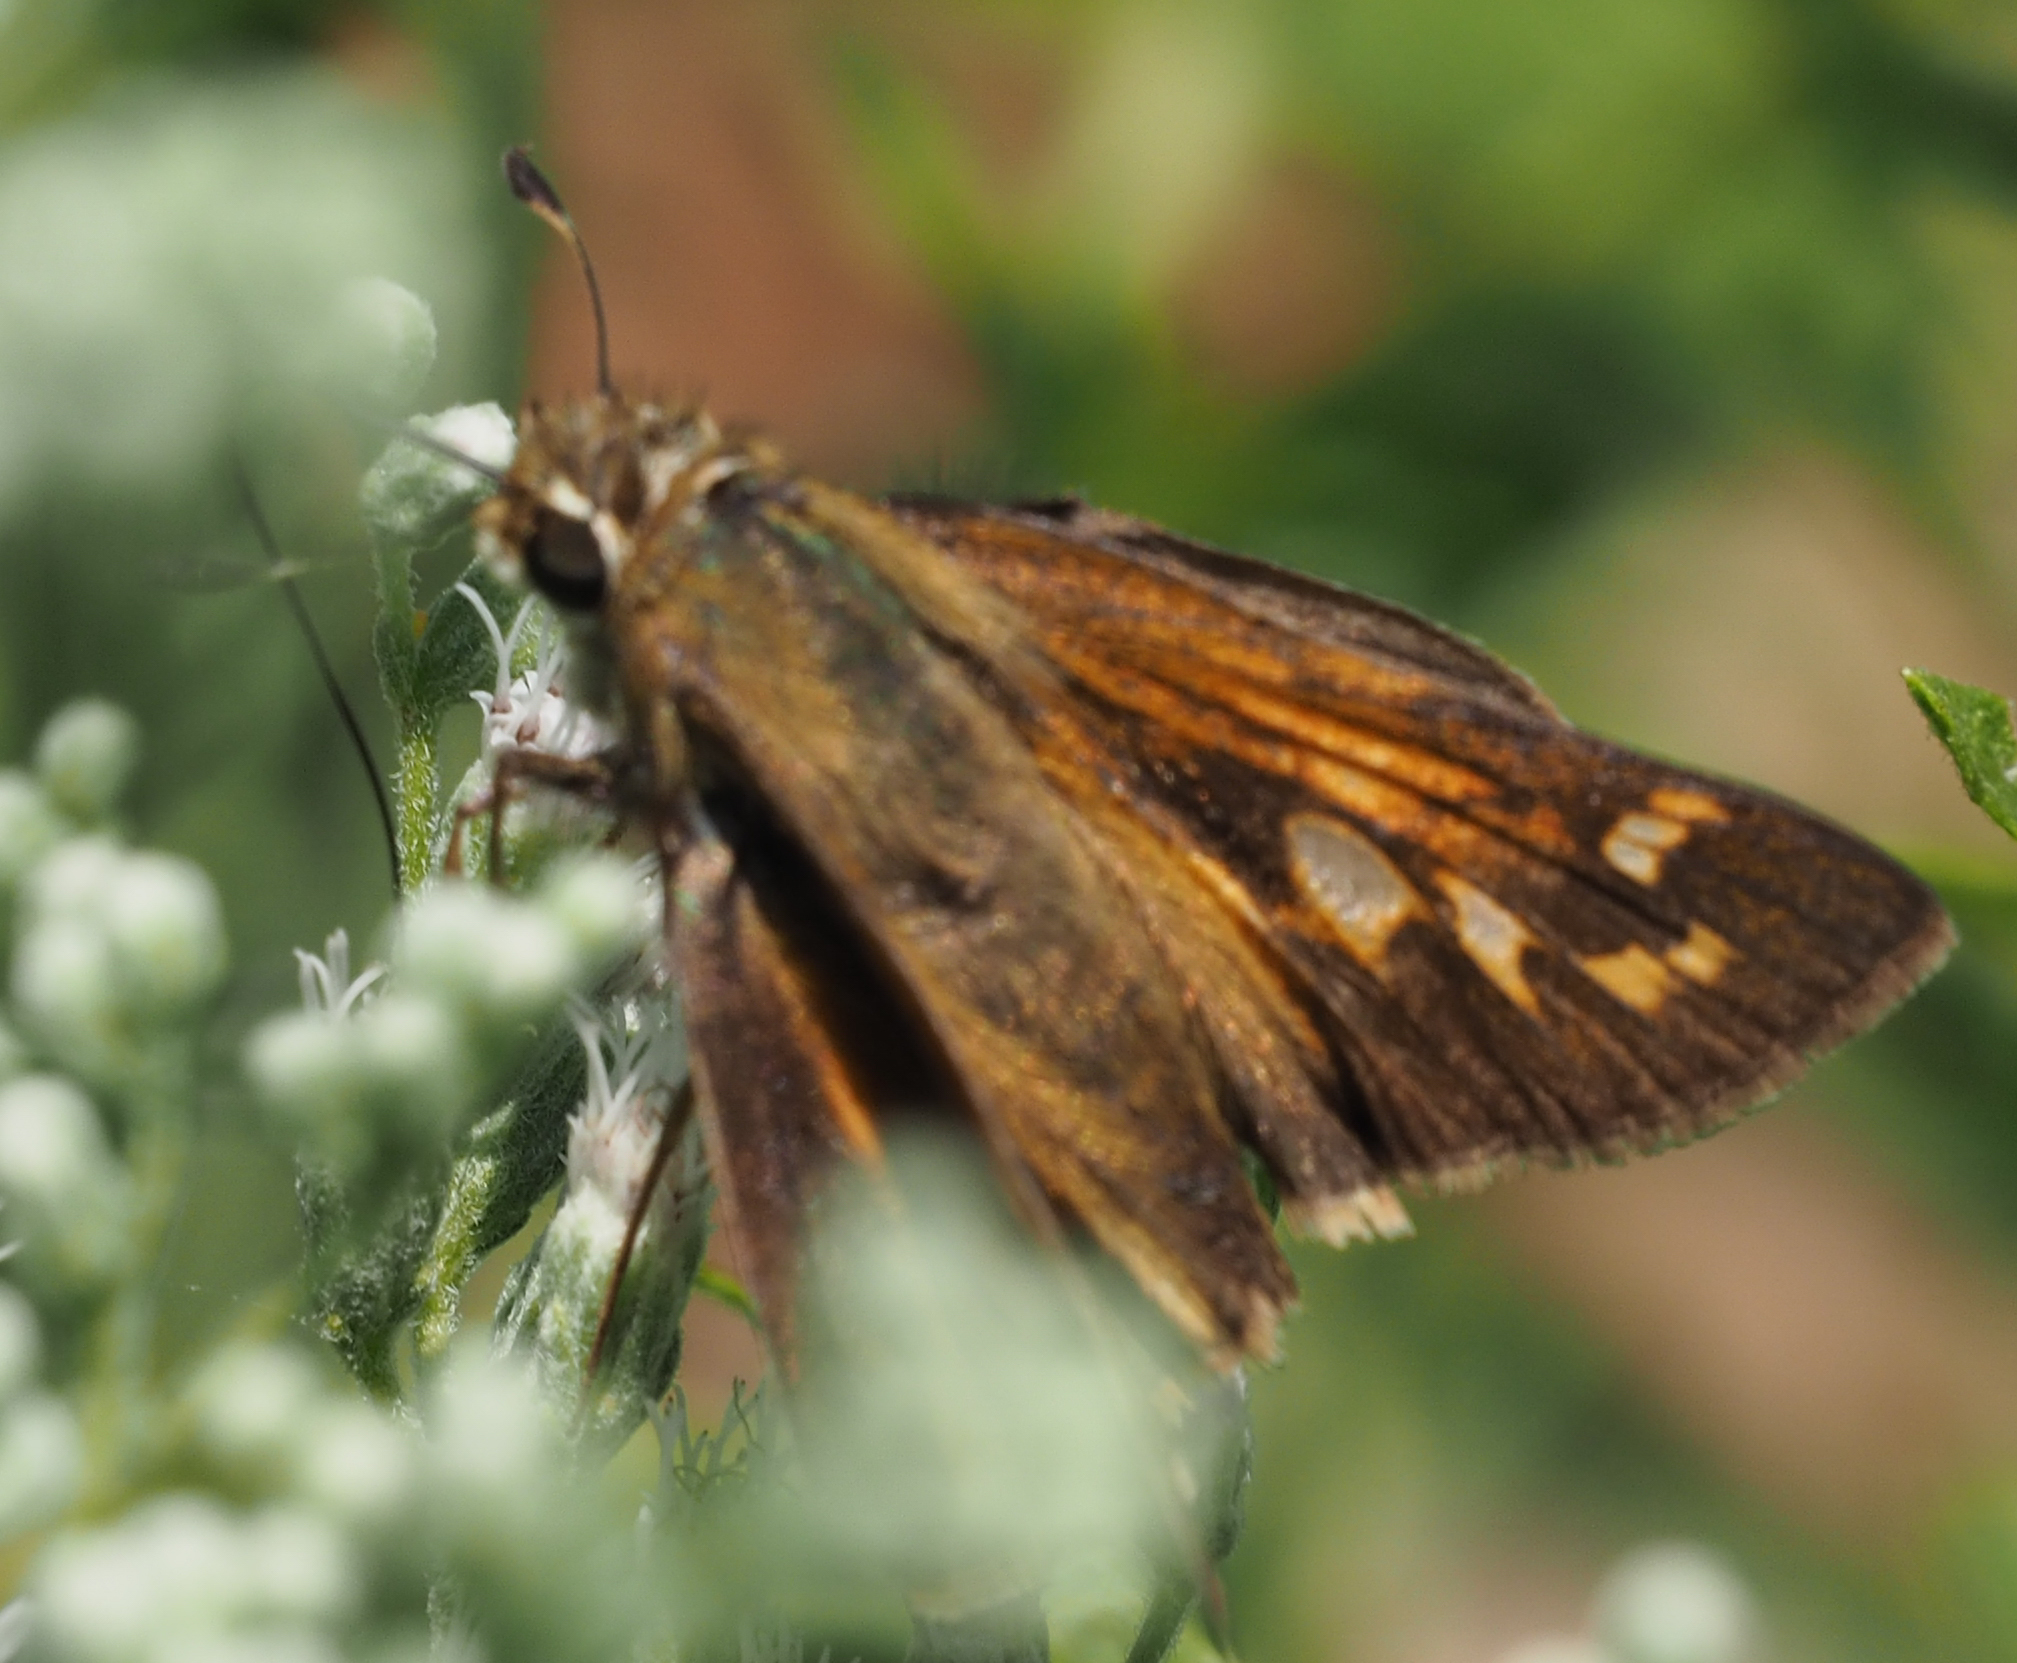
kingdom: Animalia
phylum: Arthropoda
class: Insecta
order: Lepidoptera
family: Hesperiidae
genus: Atalopedes
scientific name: Atalopedes
